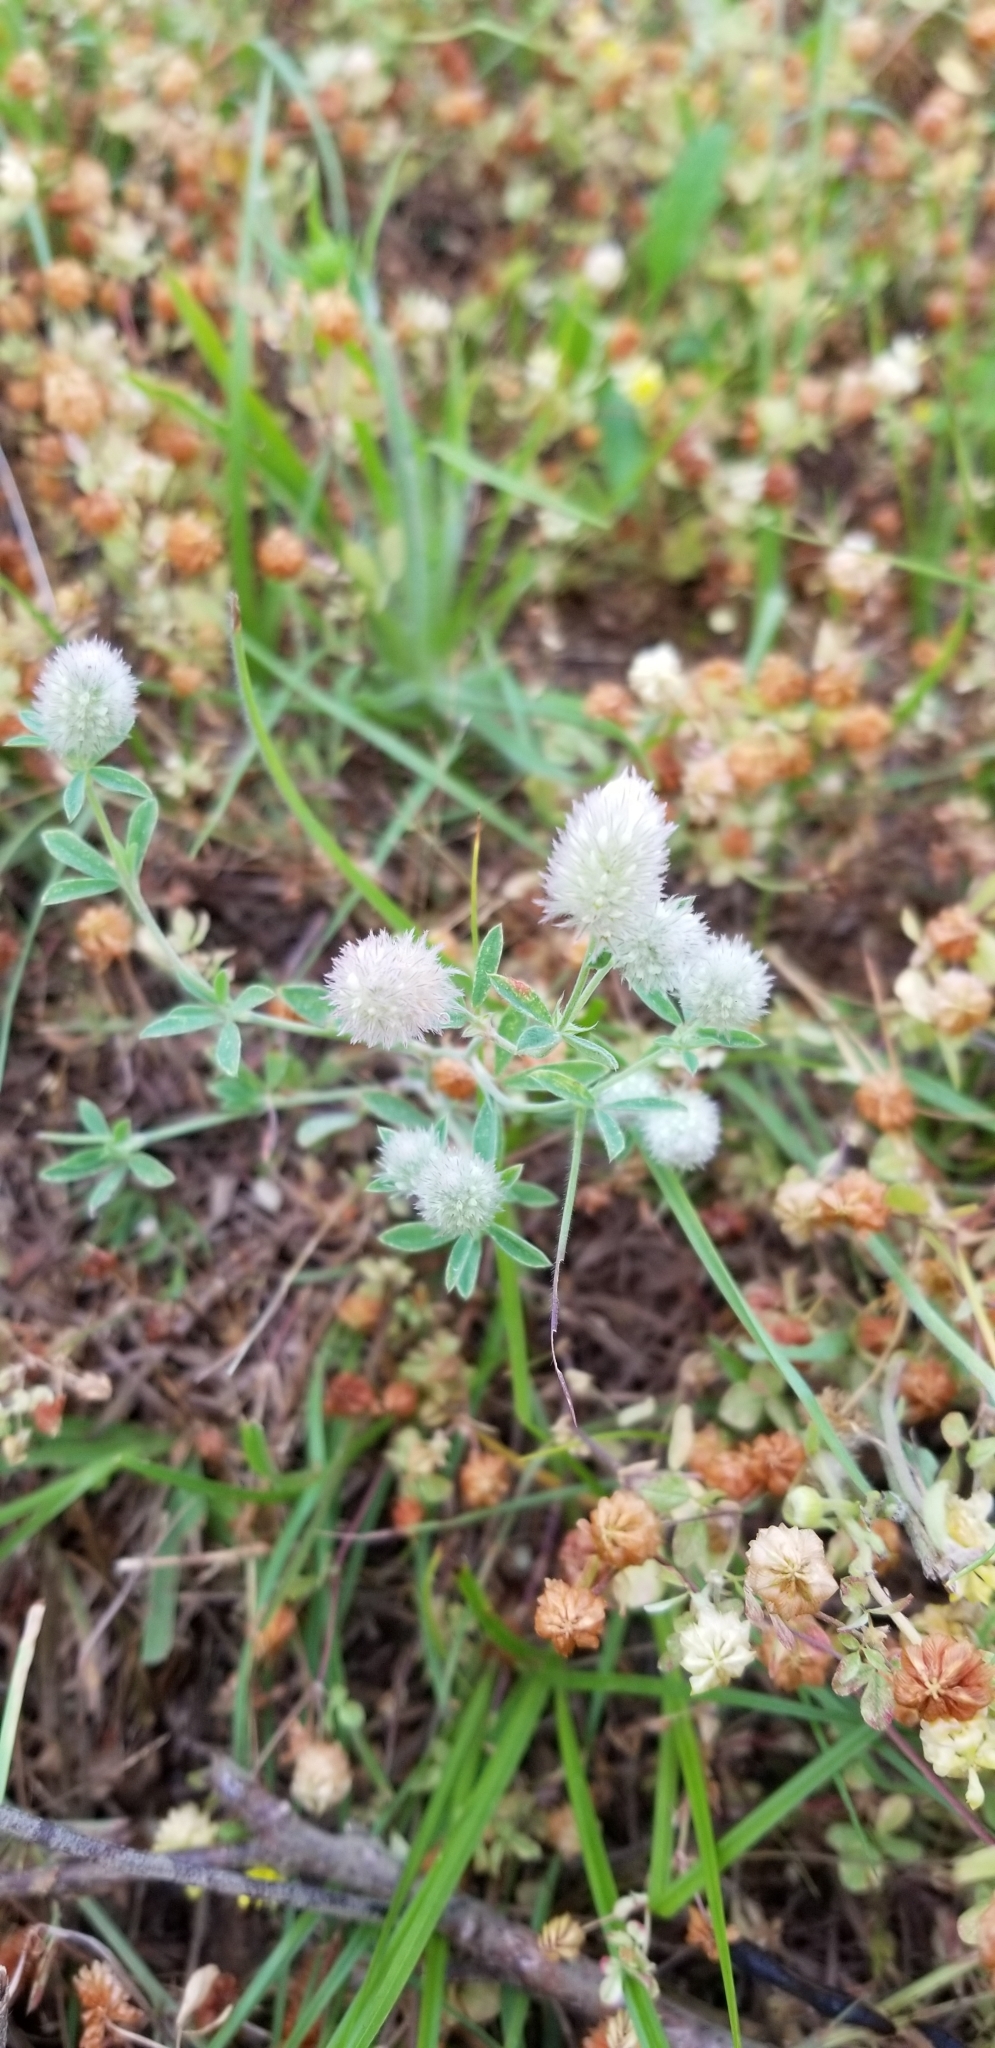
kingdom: Plantae
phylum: Tracheophyta
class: Magnoliopsida
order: Fabales
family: Fabaceae
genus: Trifolium
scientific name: Trifolium arvense
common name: Hare's-foot clover
